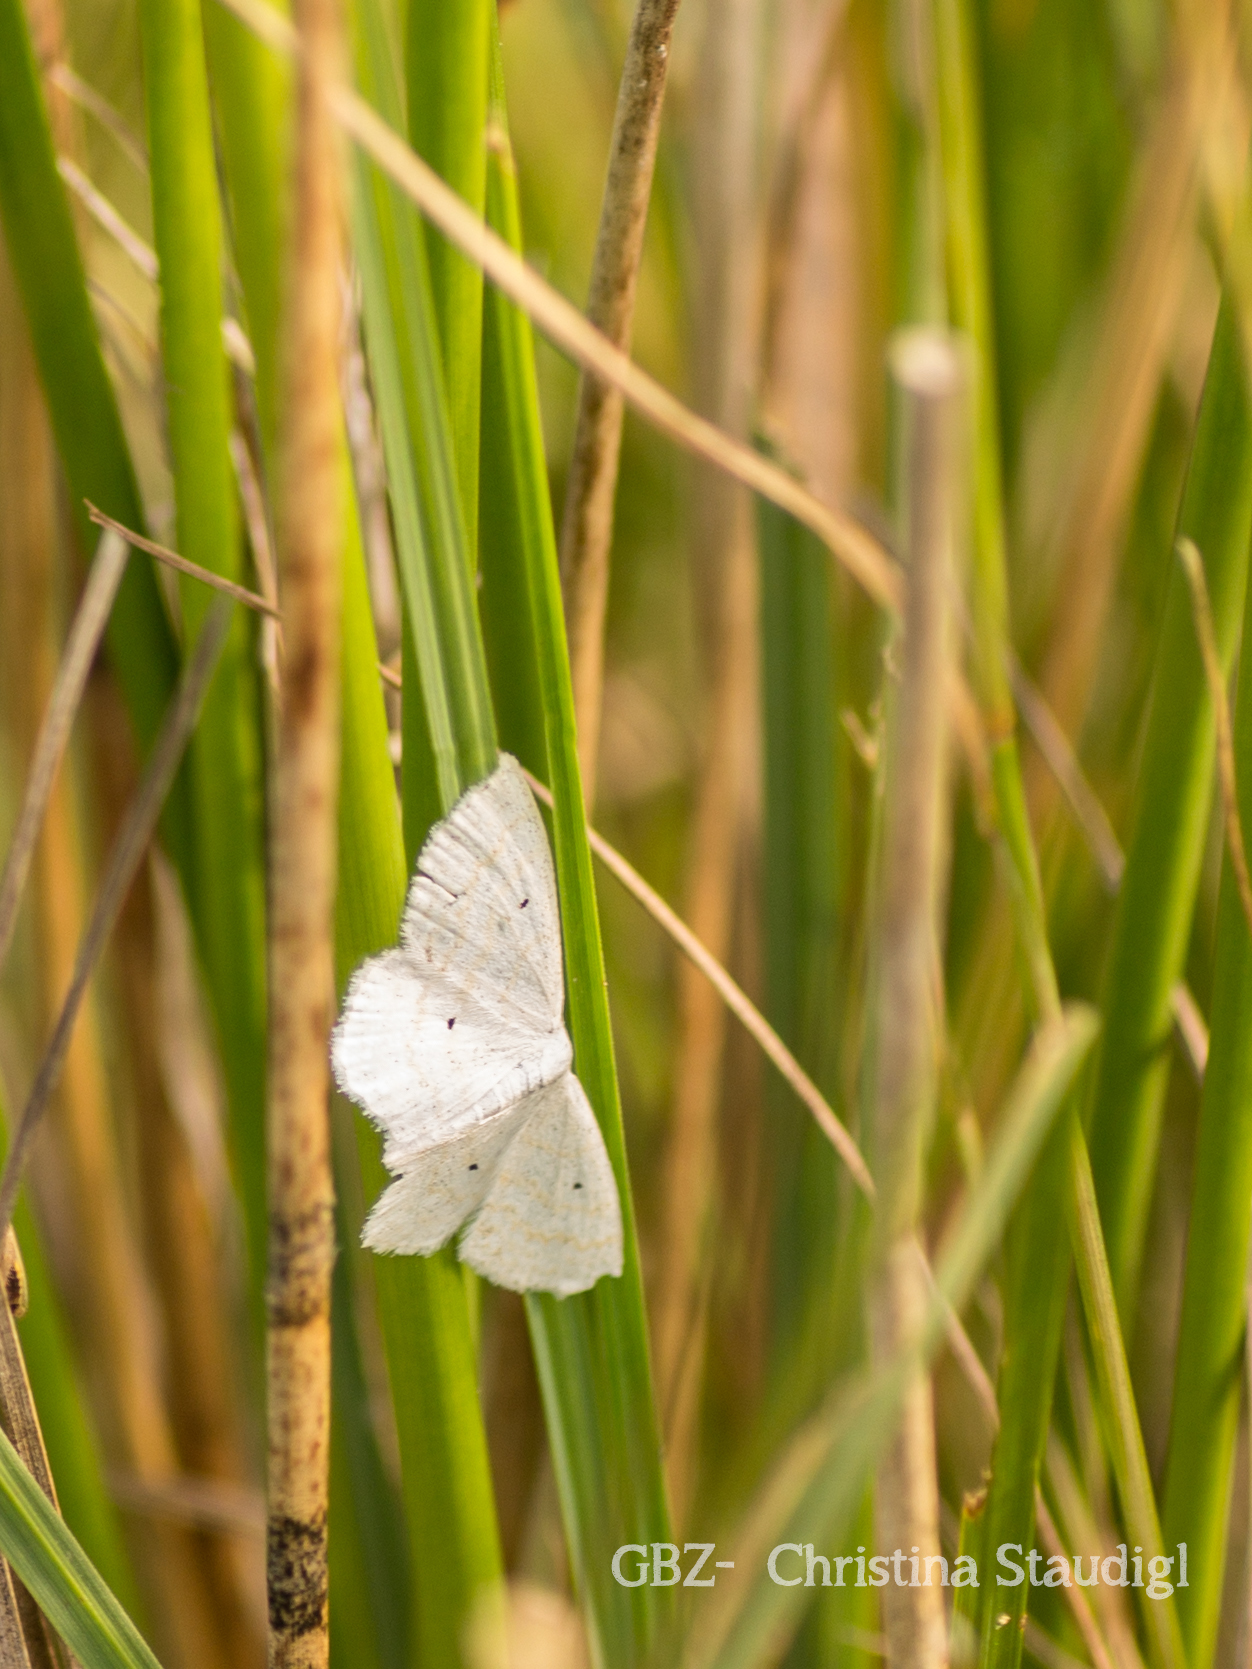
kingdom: Animalia
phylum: Arthropoda
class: Insecta
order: Lepidoptera
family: Geometridae
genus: Scopula
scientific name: Scopula immutata
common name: Lesser cream wave
